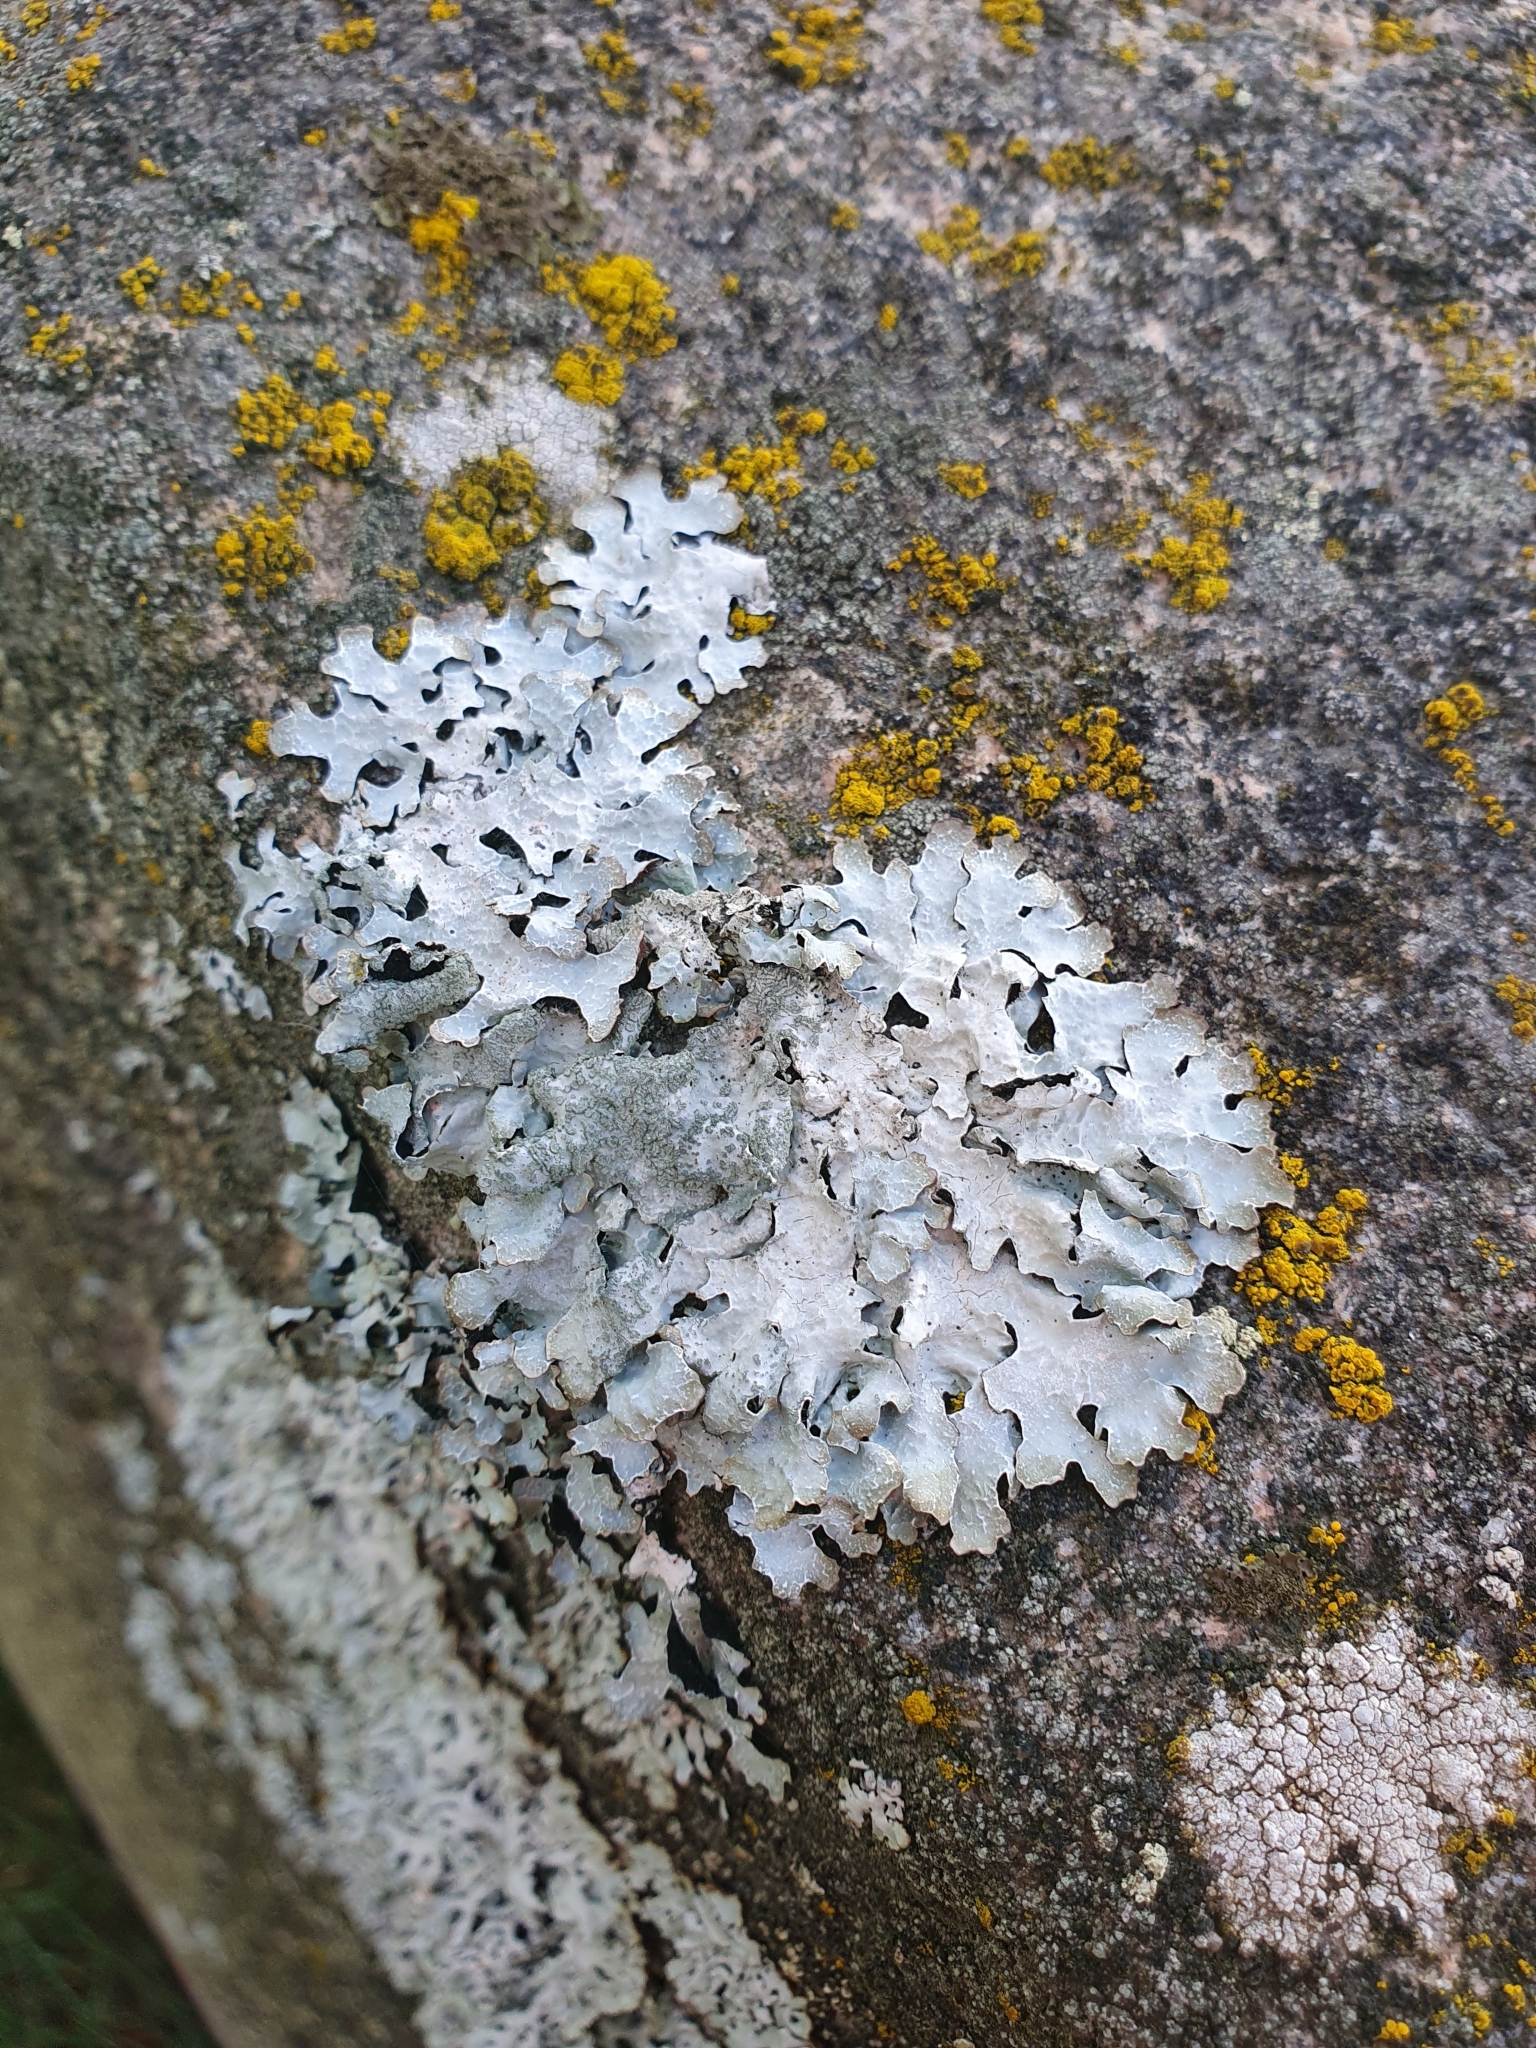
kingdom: Fungi
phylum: Ascomycota
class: Lecanoromycetes
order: Lecanorales
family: Parmeliaceae
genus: Parmelia
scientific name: Parmelia sulcata
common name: Netted shield lichen
